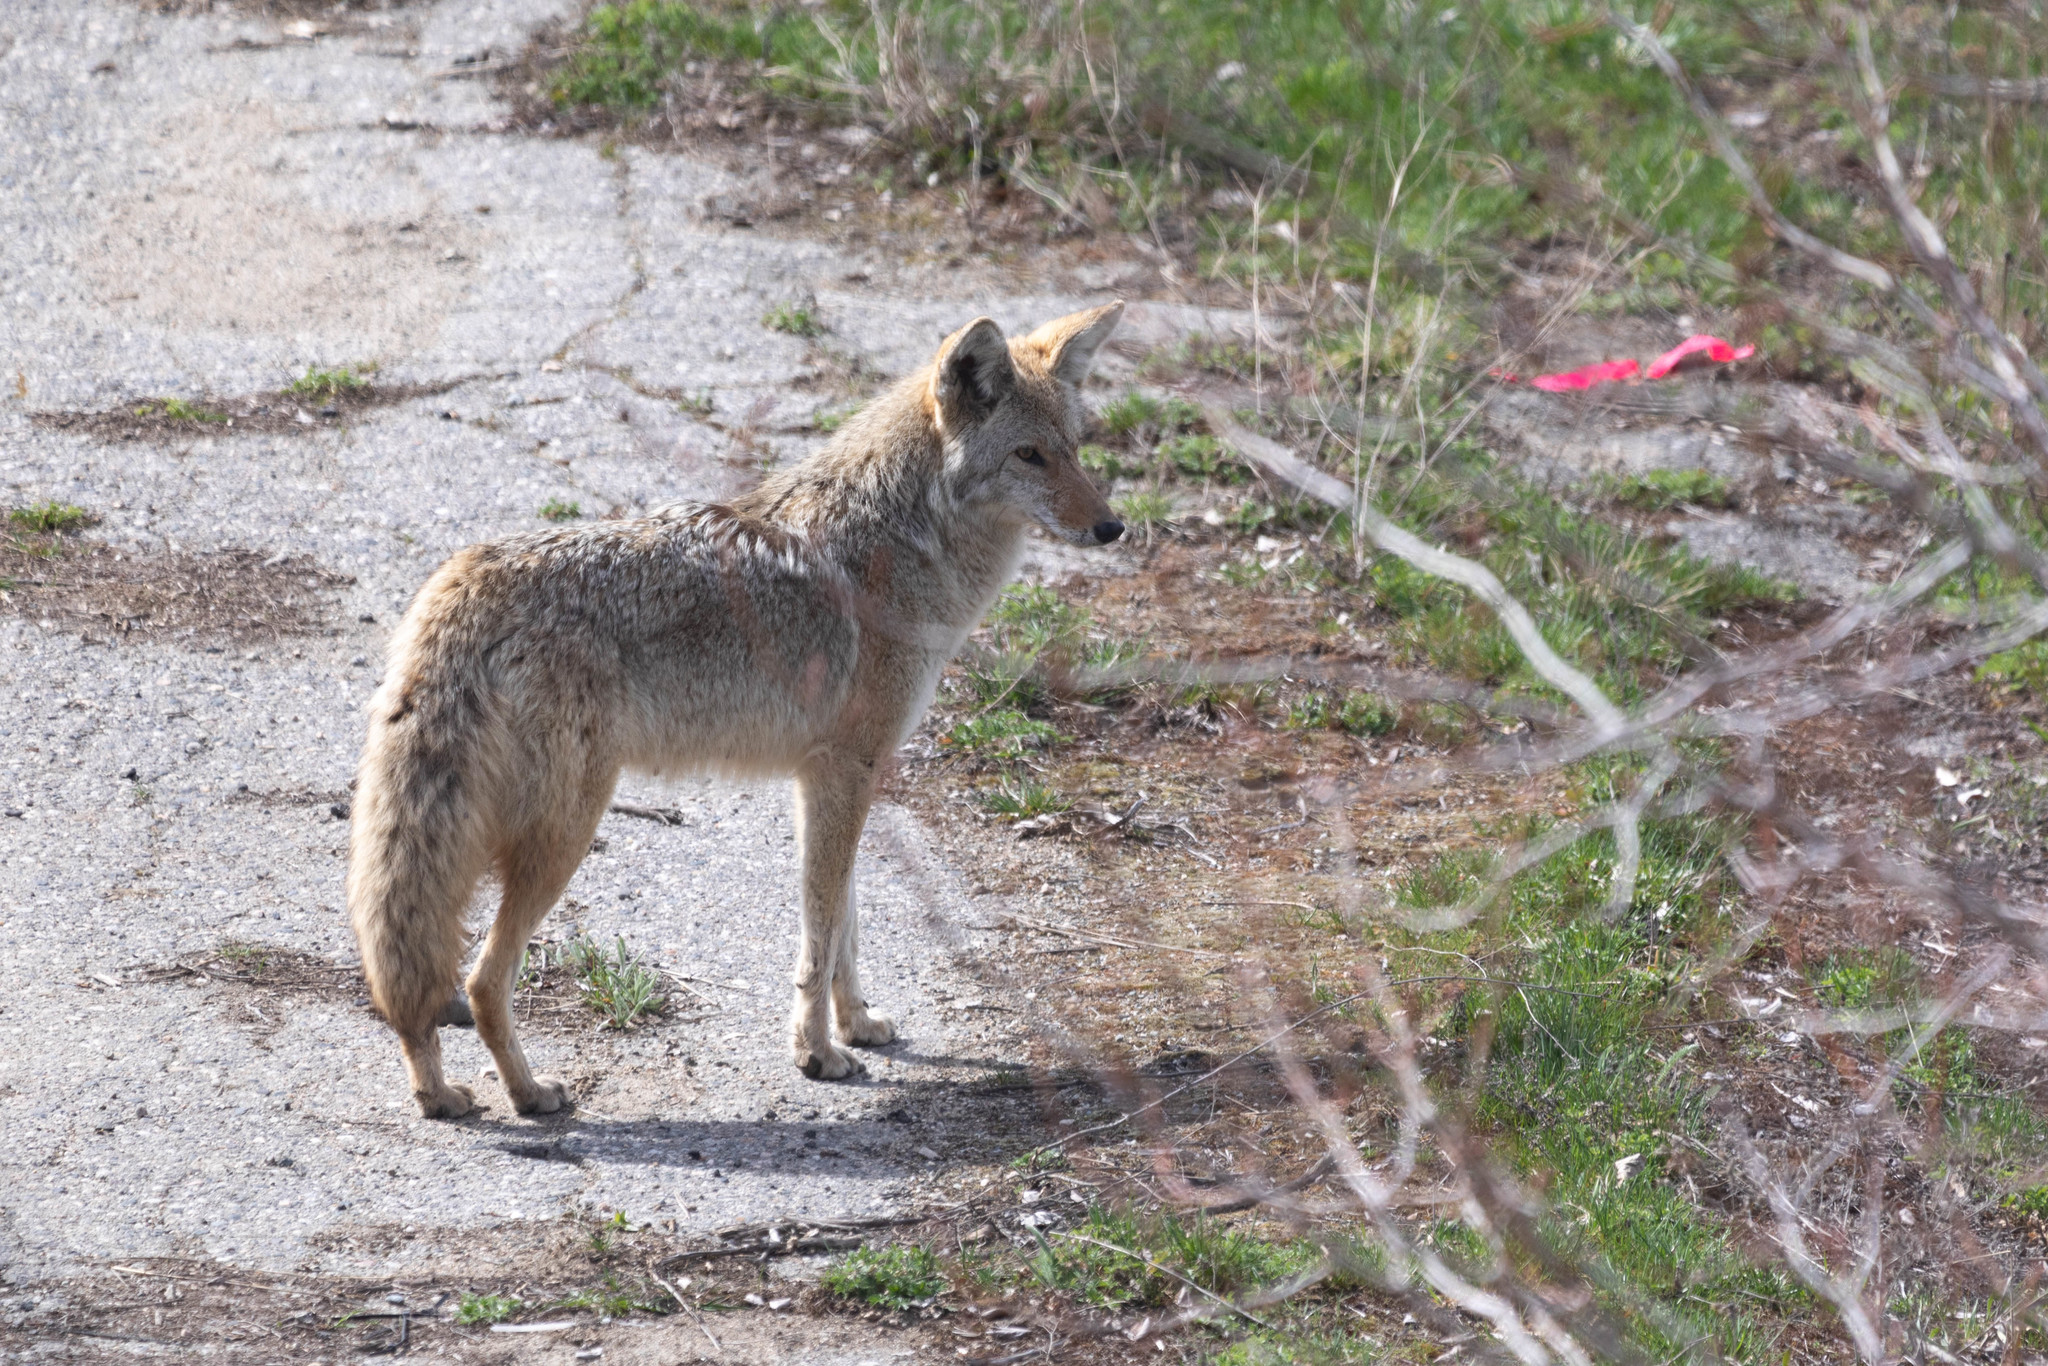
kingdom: Animalia
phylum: Chordata
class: Mammalia
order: Carnivora
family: Canidae
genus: Canis
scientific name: Canis latrans
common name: Coyote
